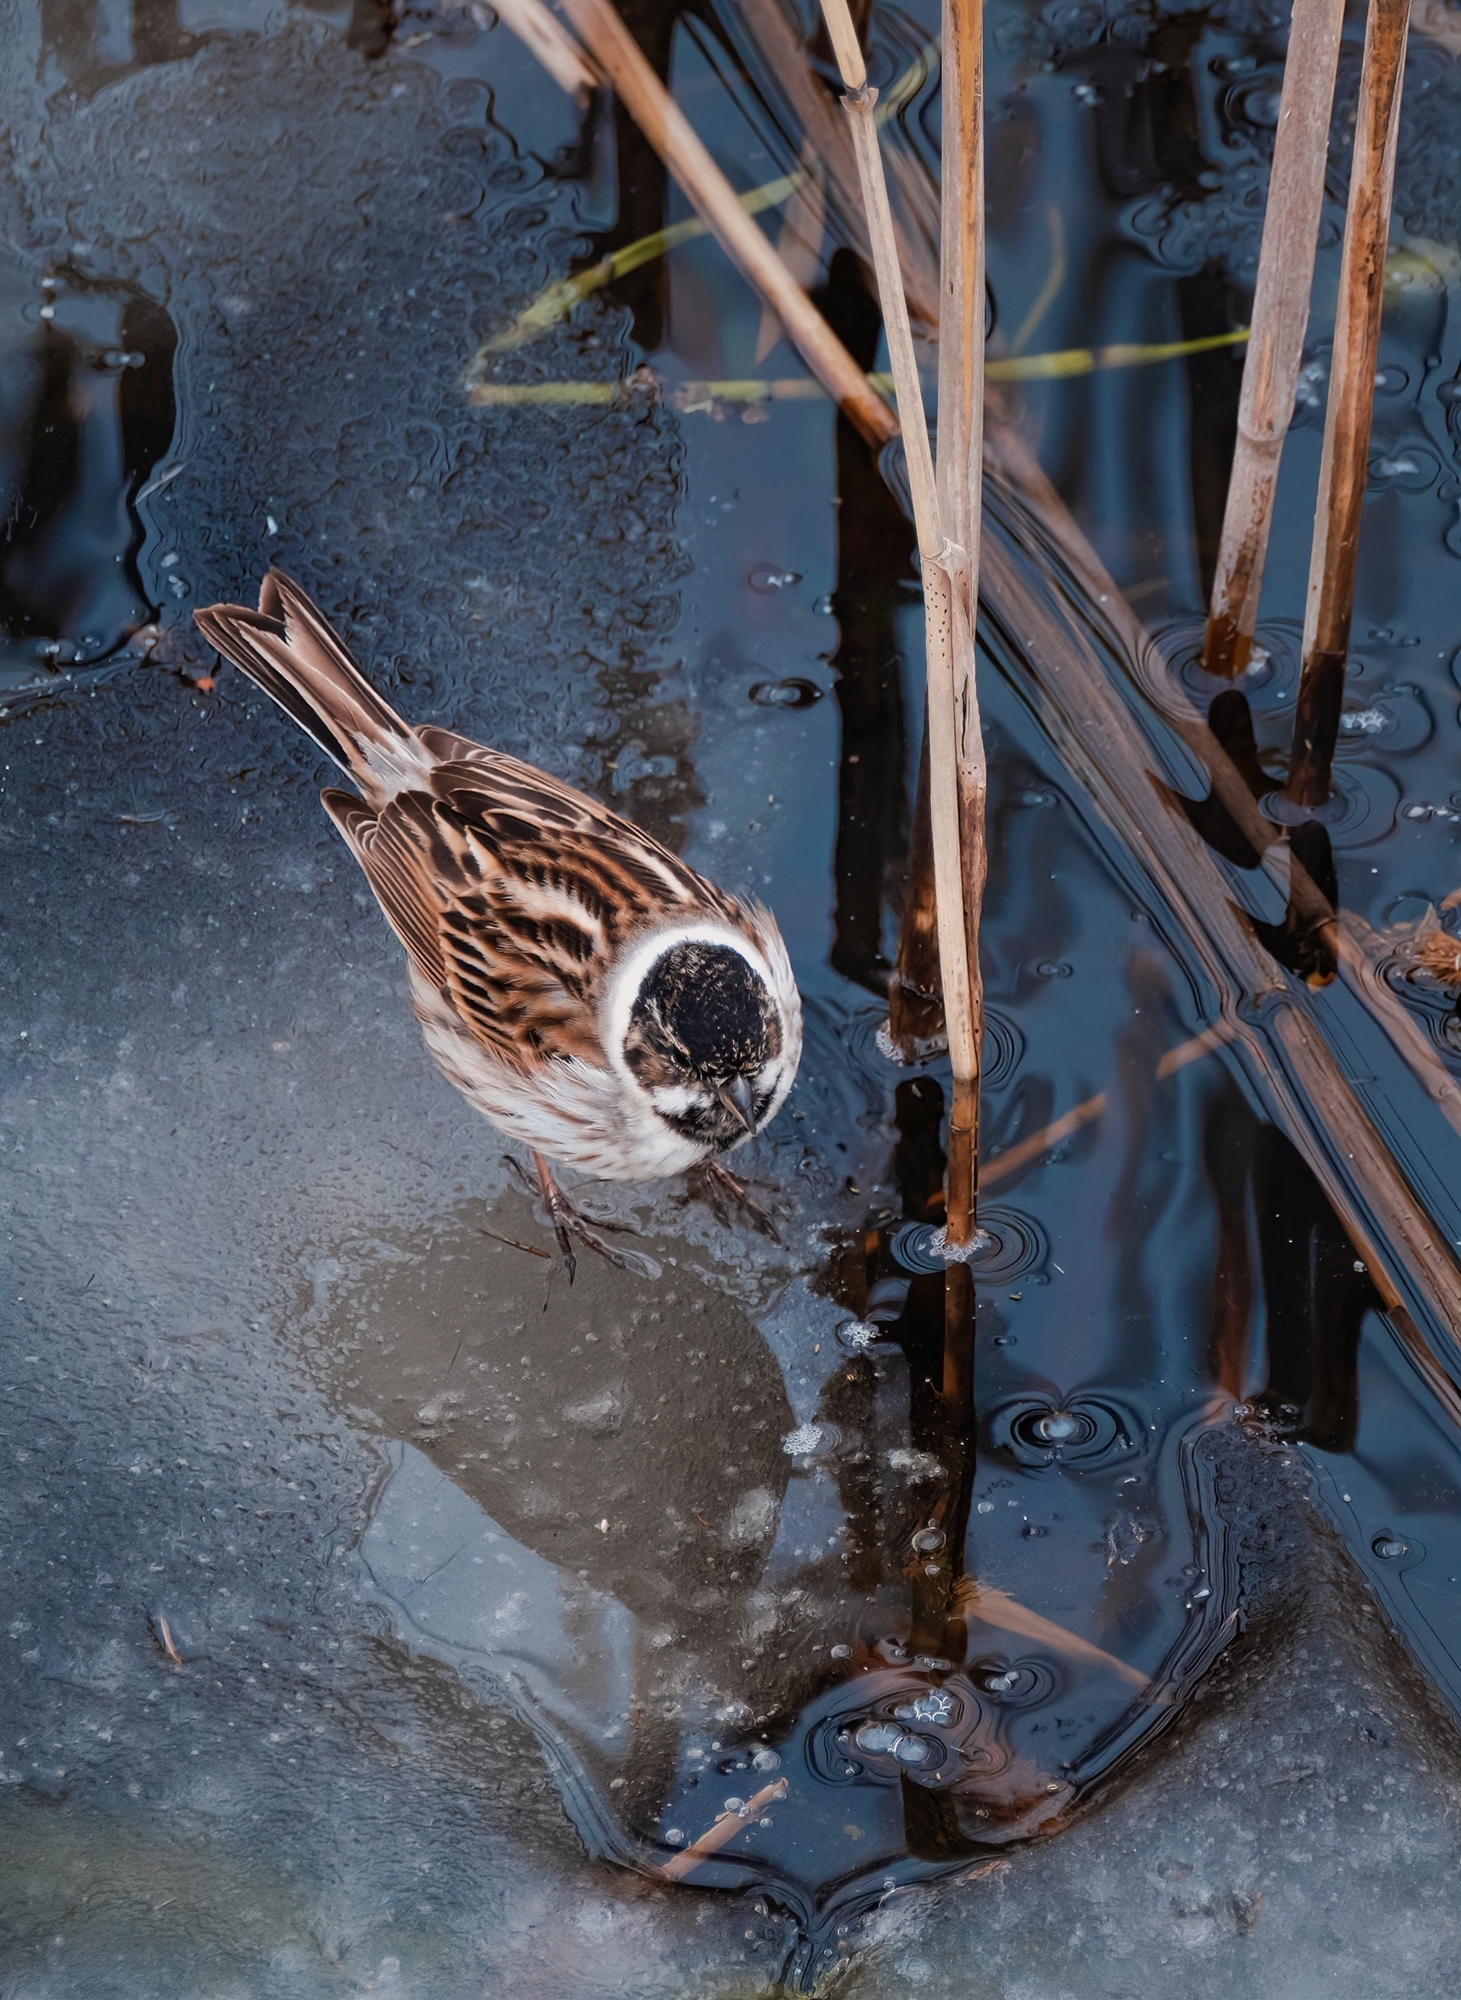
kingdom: Animalia
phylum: Chordata
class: Aves
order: Passeriformes
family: Emberizidae
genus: Emberiza
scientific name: Emberiza schoeniclus
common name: Reed bunting
